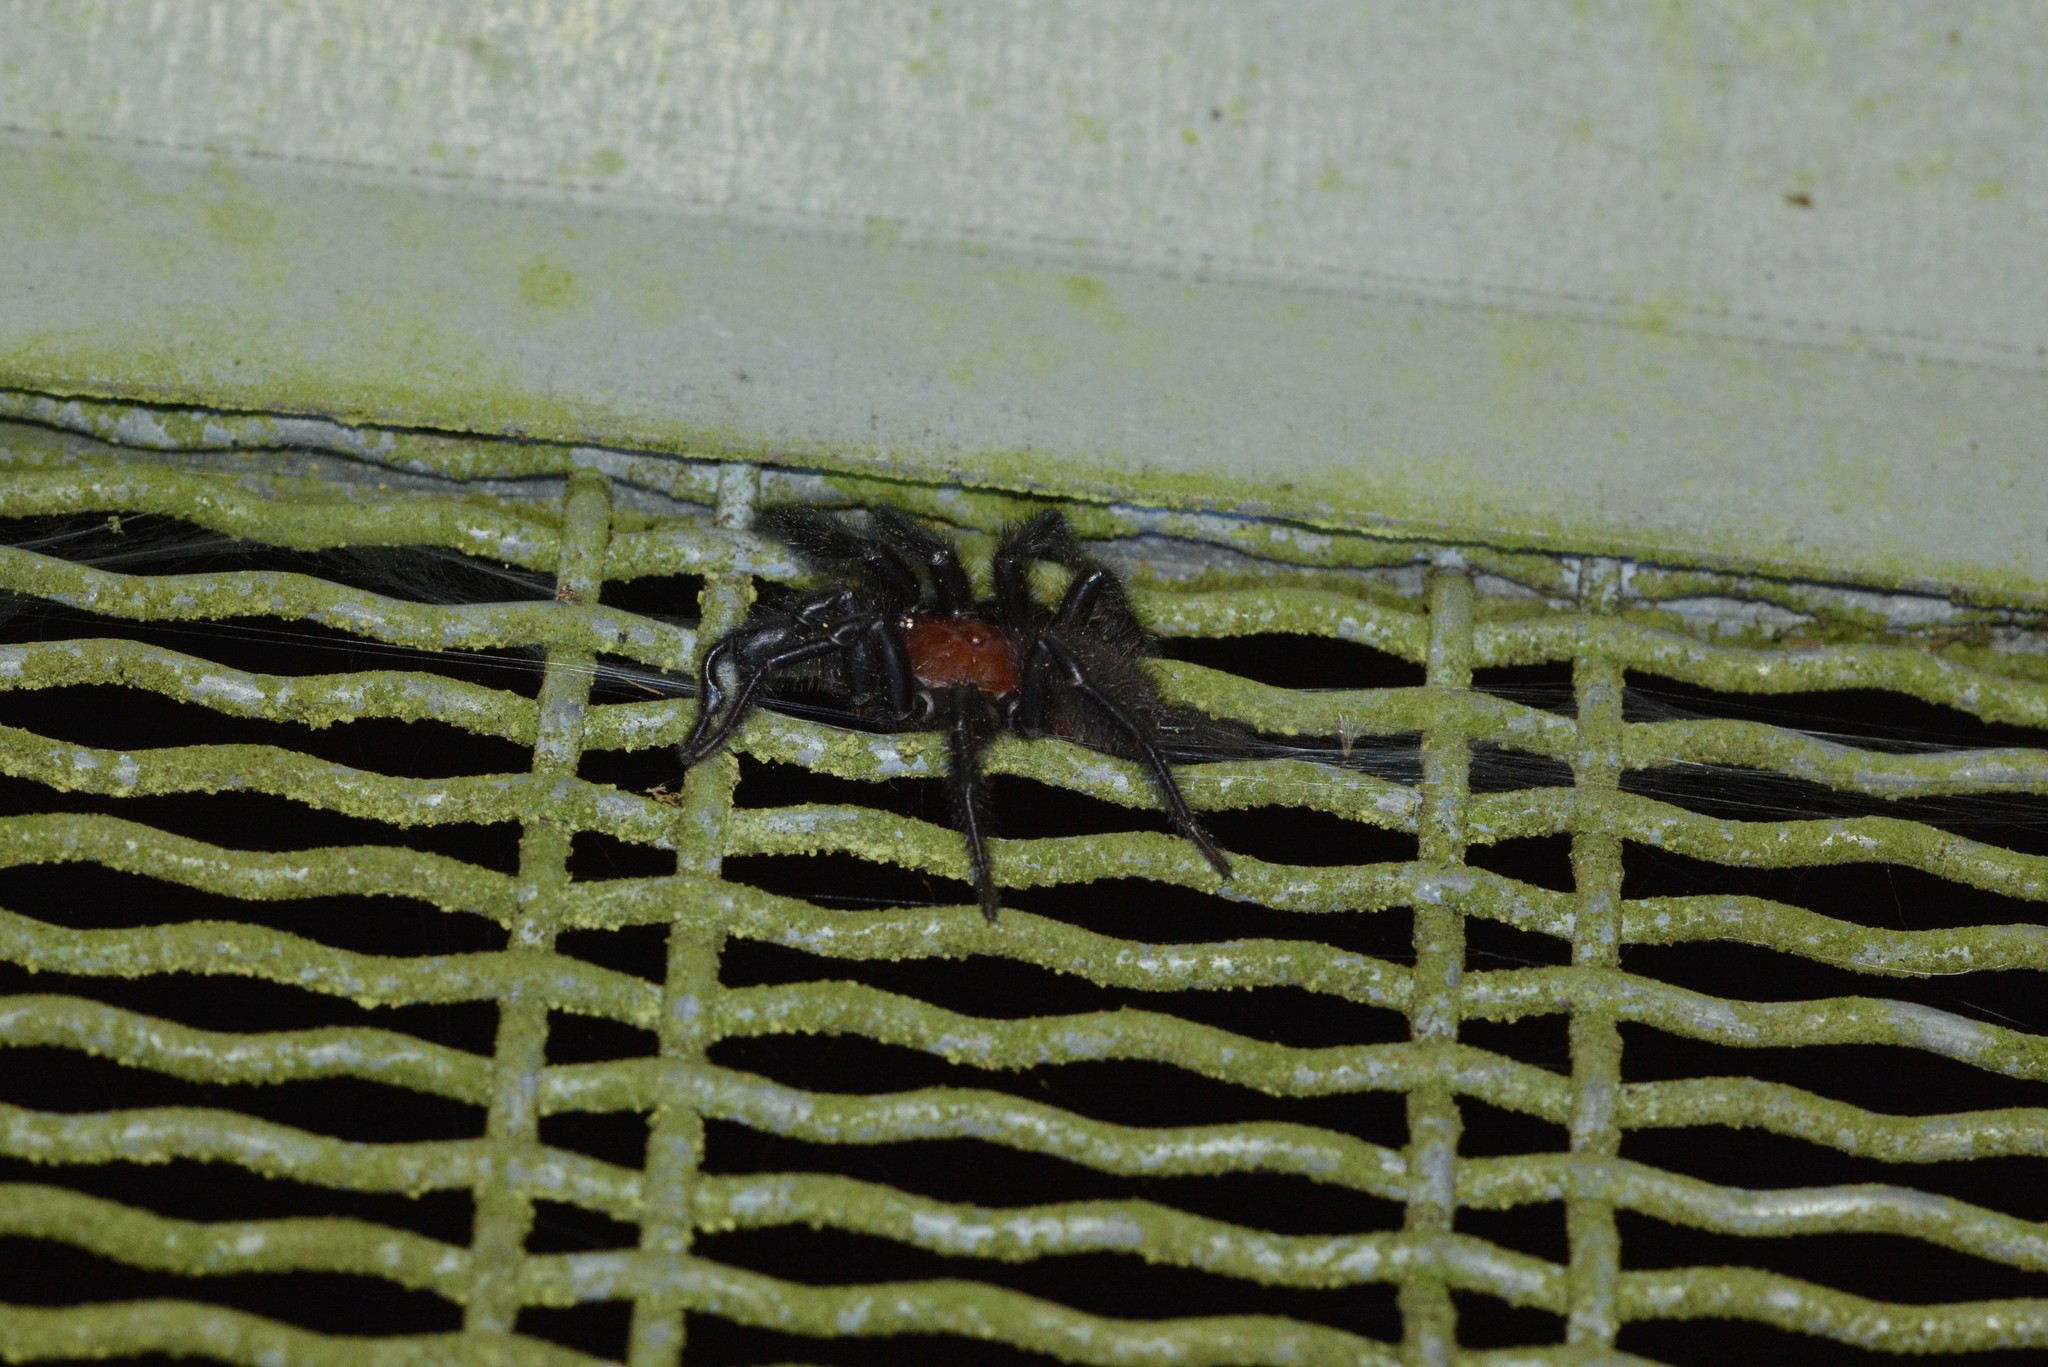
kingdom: Animalia
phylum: Arthropoda
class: Arachnida
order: Araneae
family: Porrhothelidae
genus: Porrhothele
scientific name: Porrhothele antipodiana
